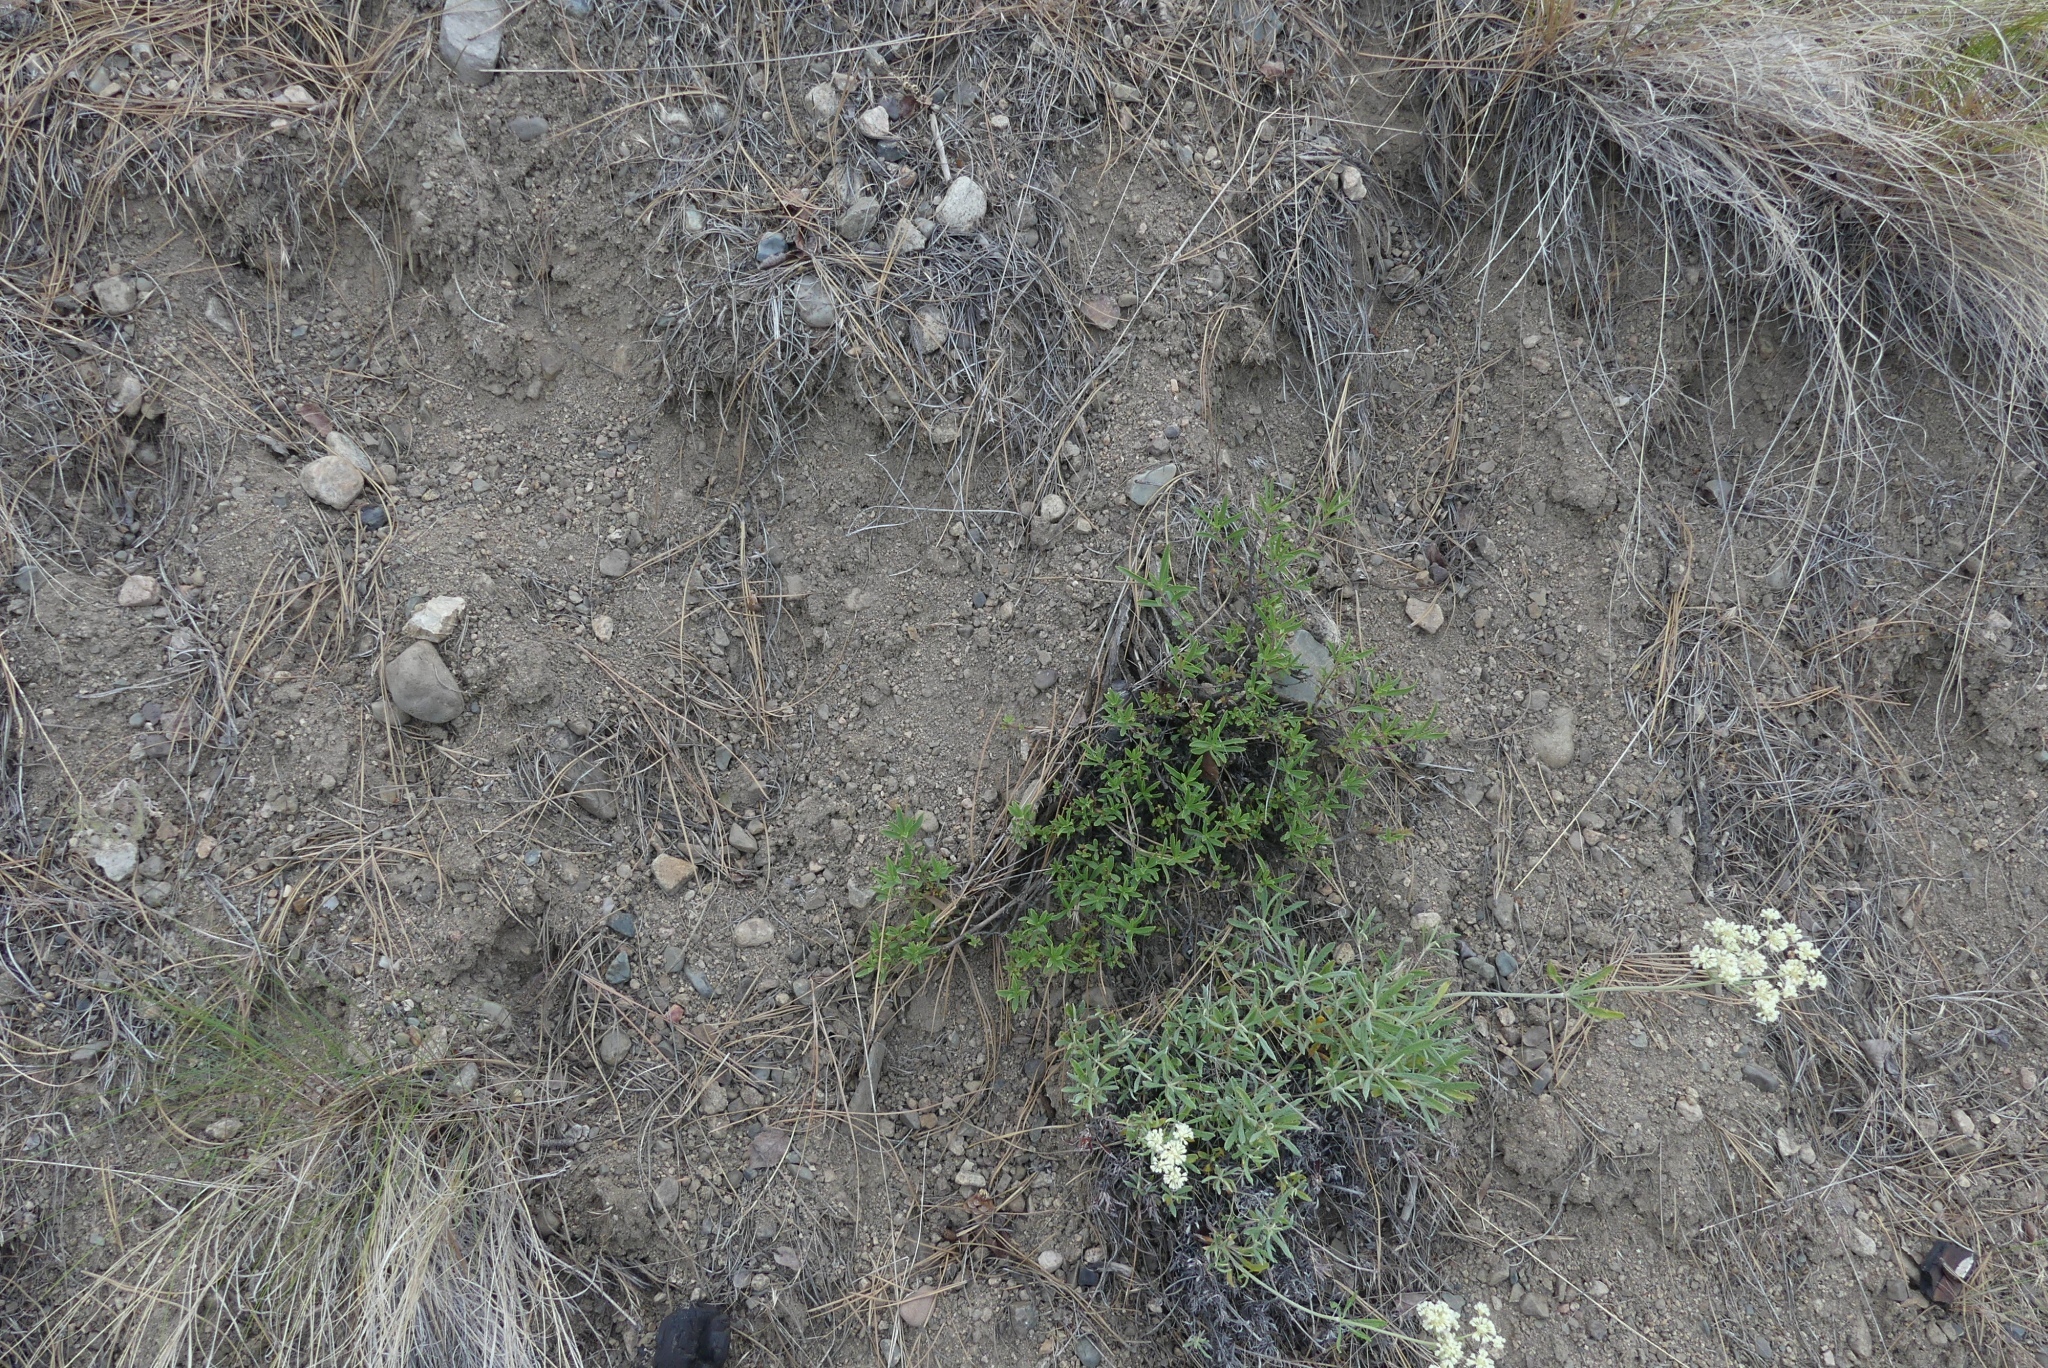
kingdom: Plantae
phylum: Tracheophyta
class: Magnoliopsida
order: Lamiales
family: Plantaginaceae
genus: Penstemon
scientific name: Penstemon fruticosus
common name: Bush penstemon
